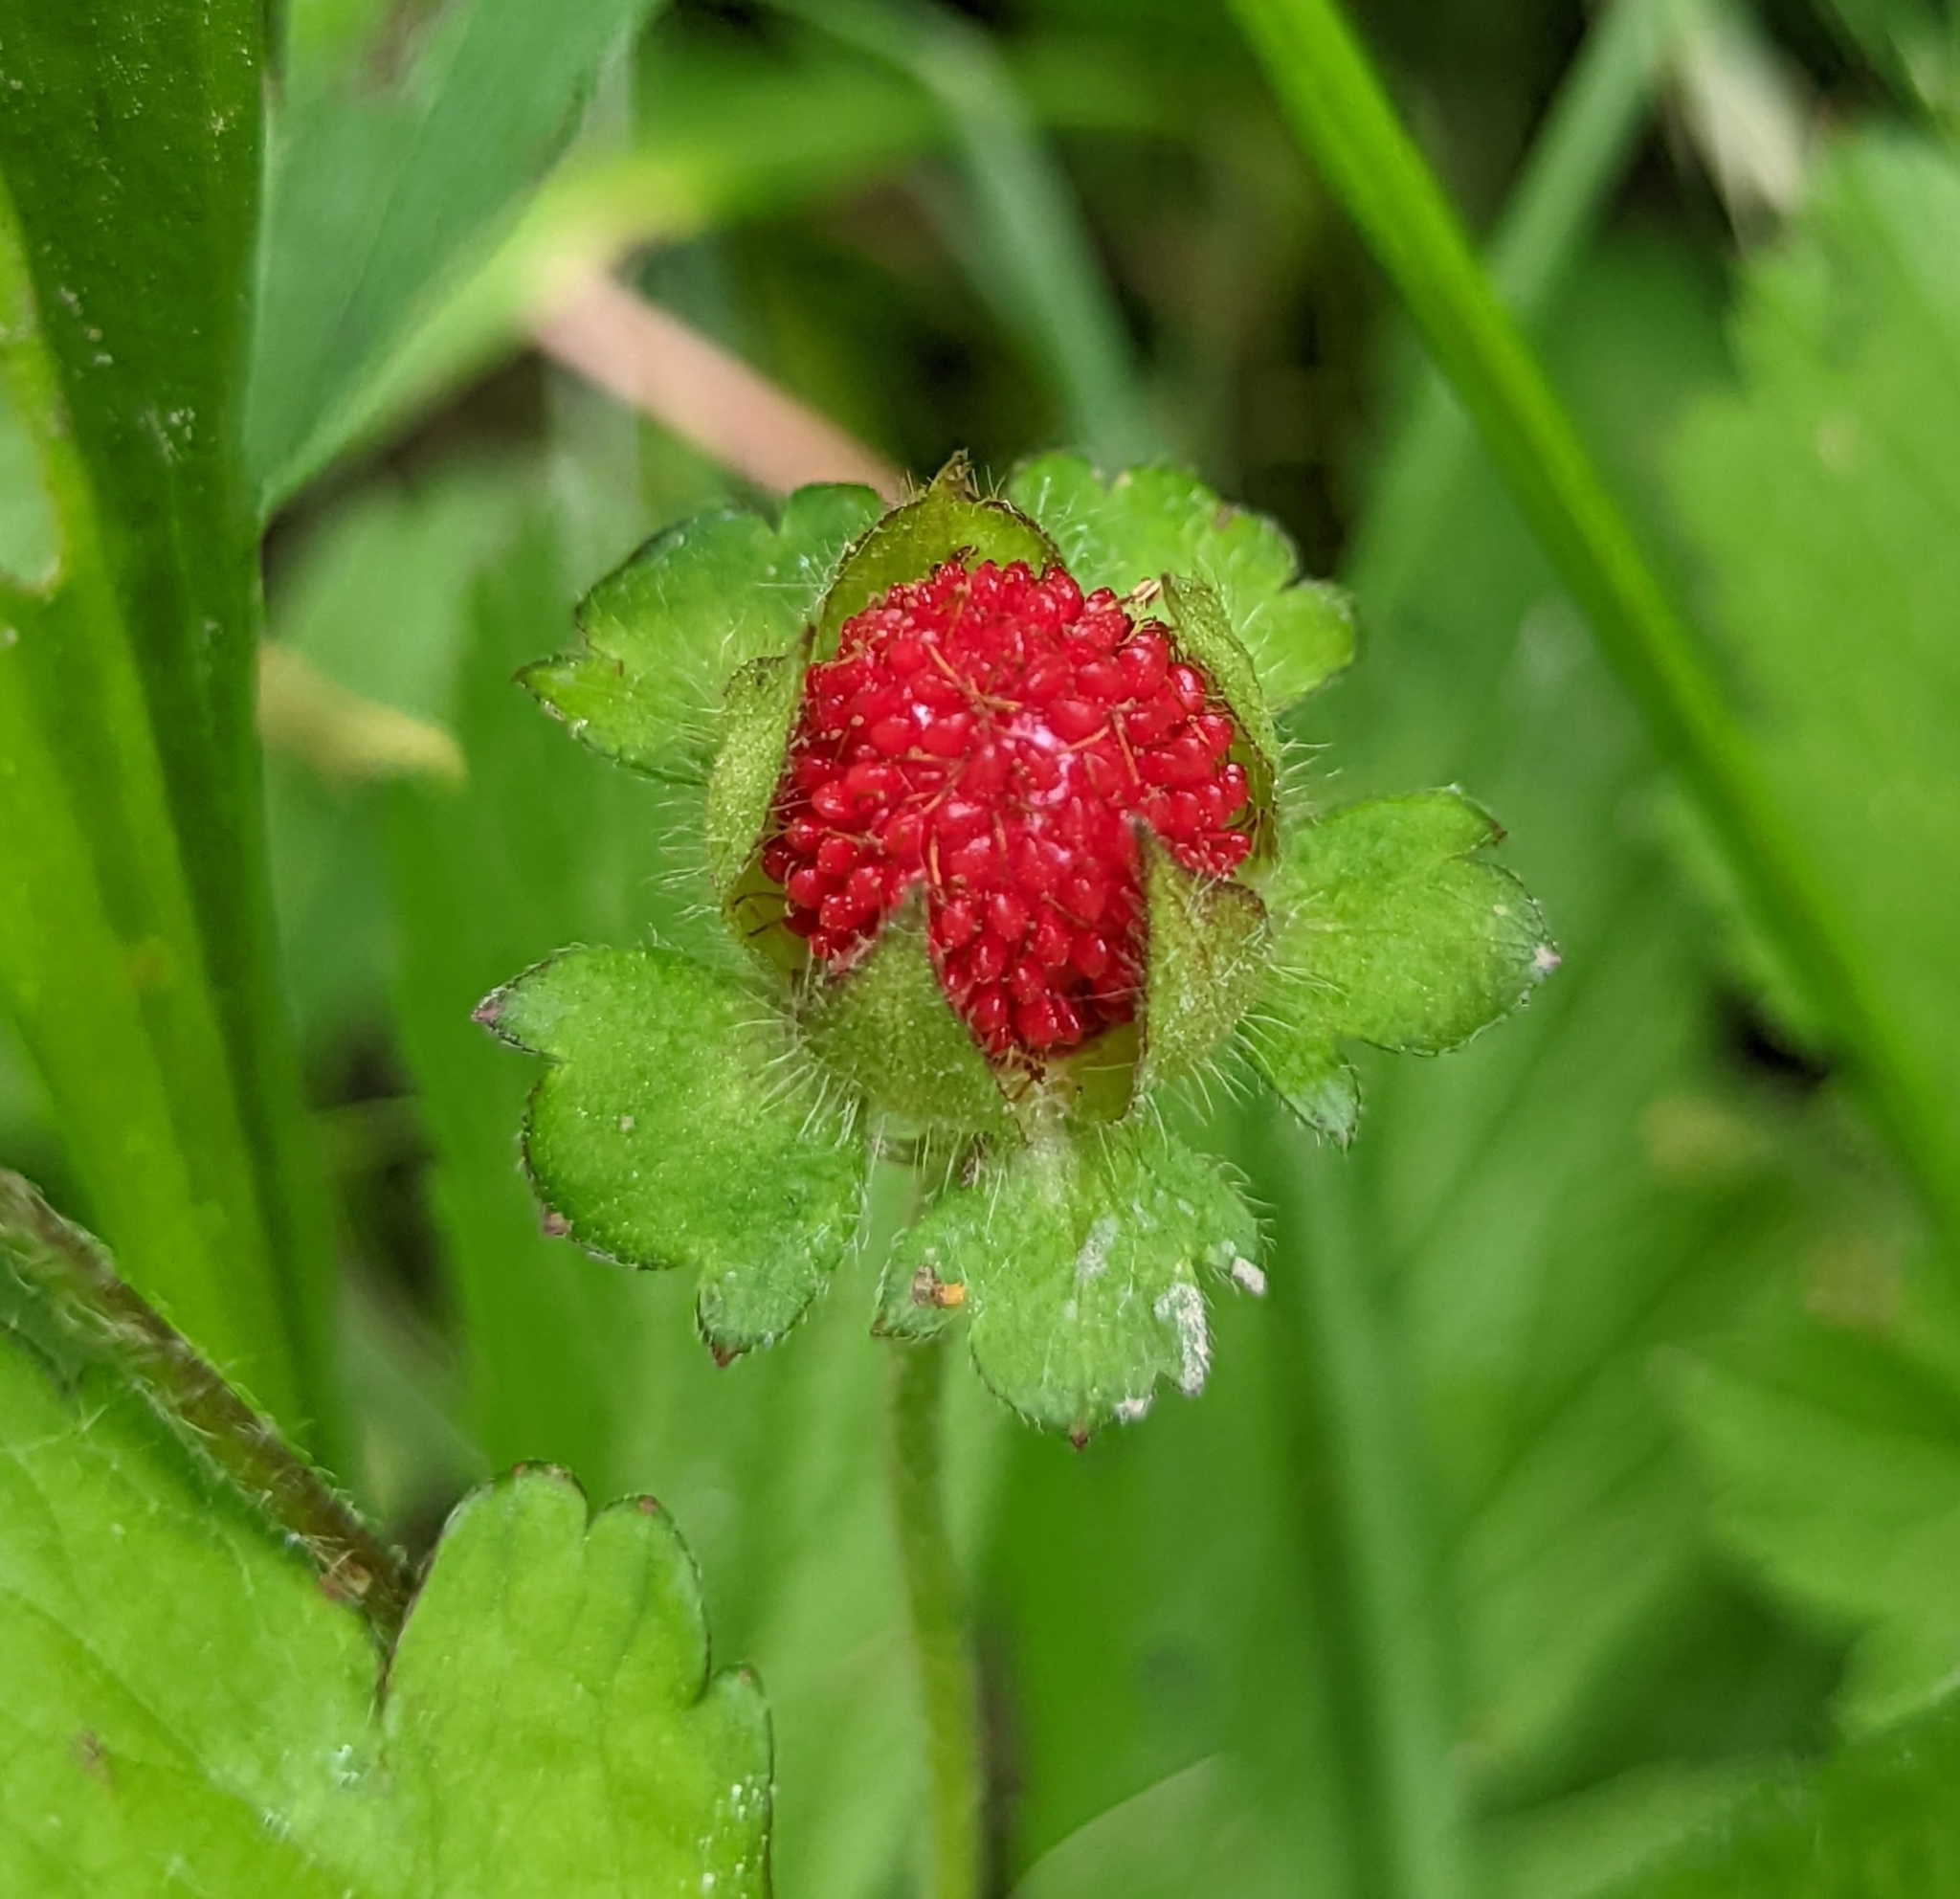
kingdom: Plantae
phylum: Tracheophyta
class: Magnoliopsida
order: Rosales
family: Rosaceae
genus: Potentilla
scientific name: Potentilla indica
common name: Yellow-flowered strawberry
